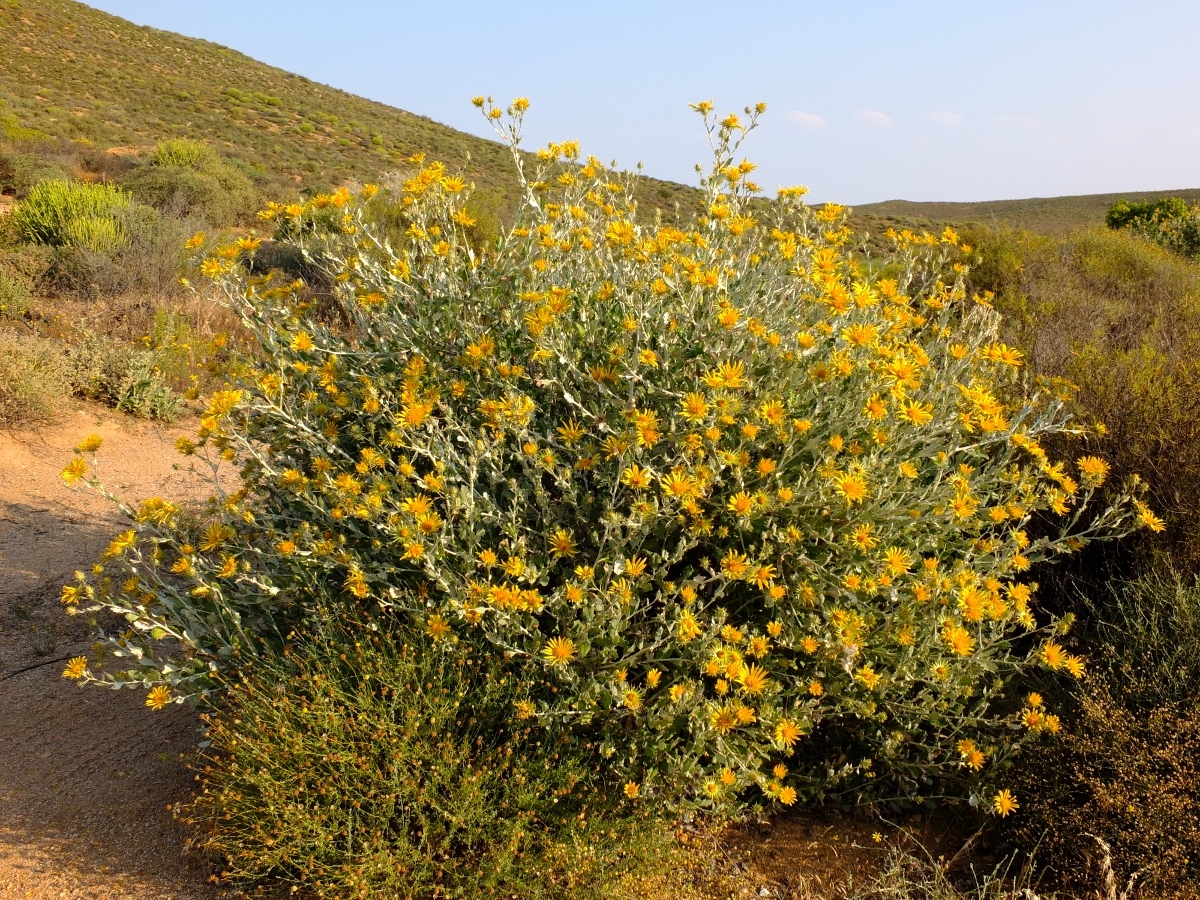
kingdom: Plantae
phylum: Tracheophyta
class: Magnoliopsida
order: Asterales
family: Asteraceae
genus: Berkheya
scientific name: Berkheya fruticosa
